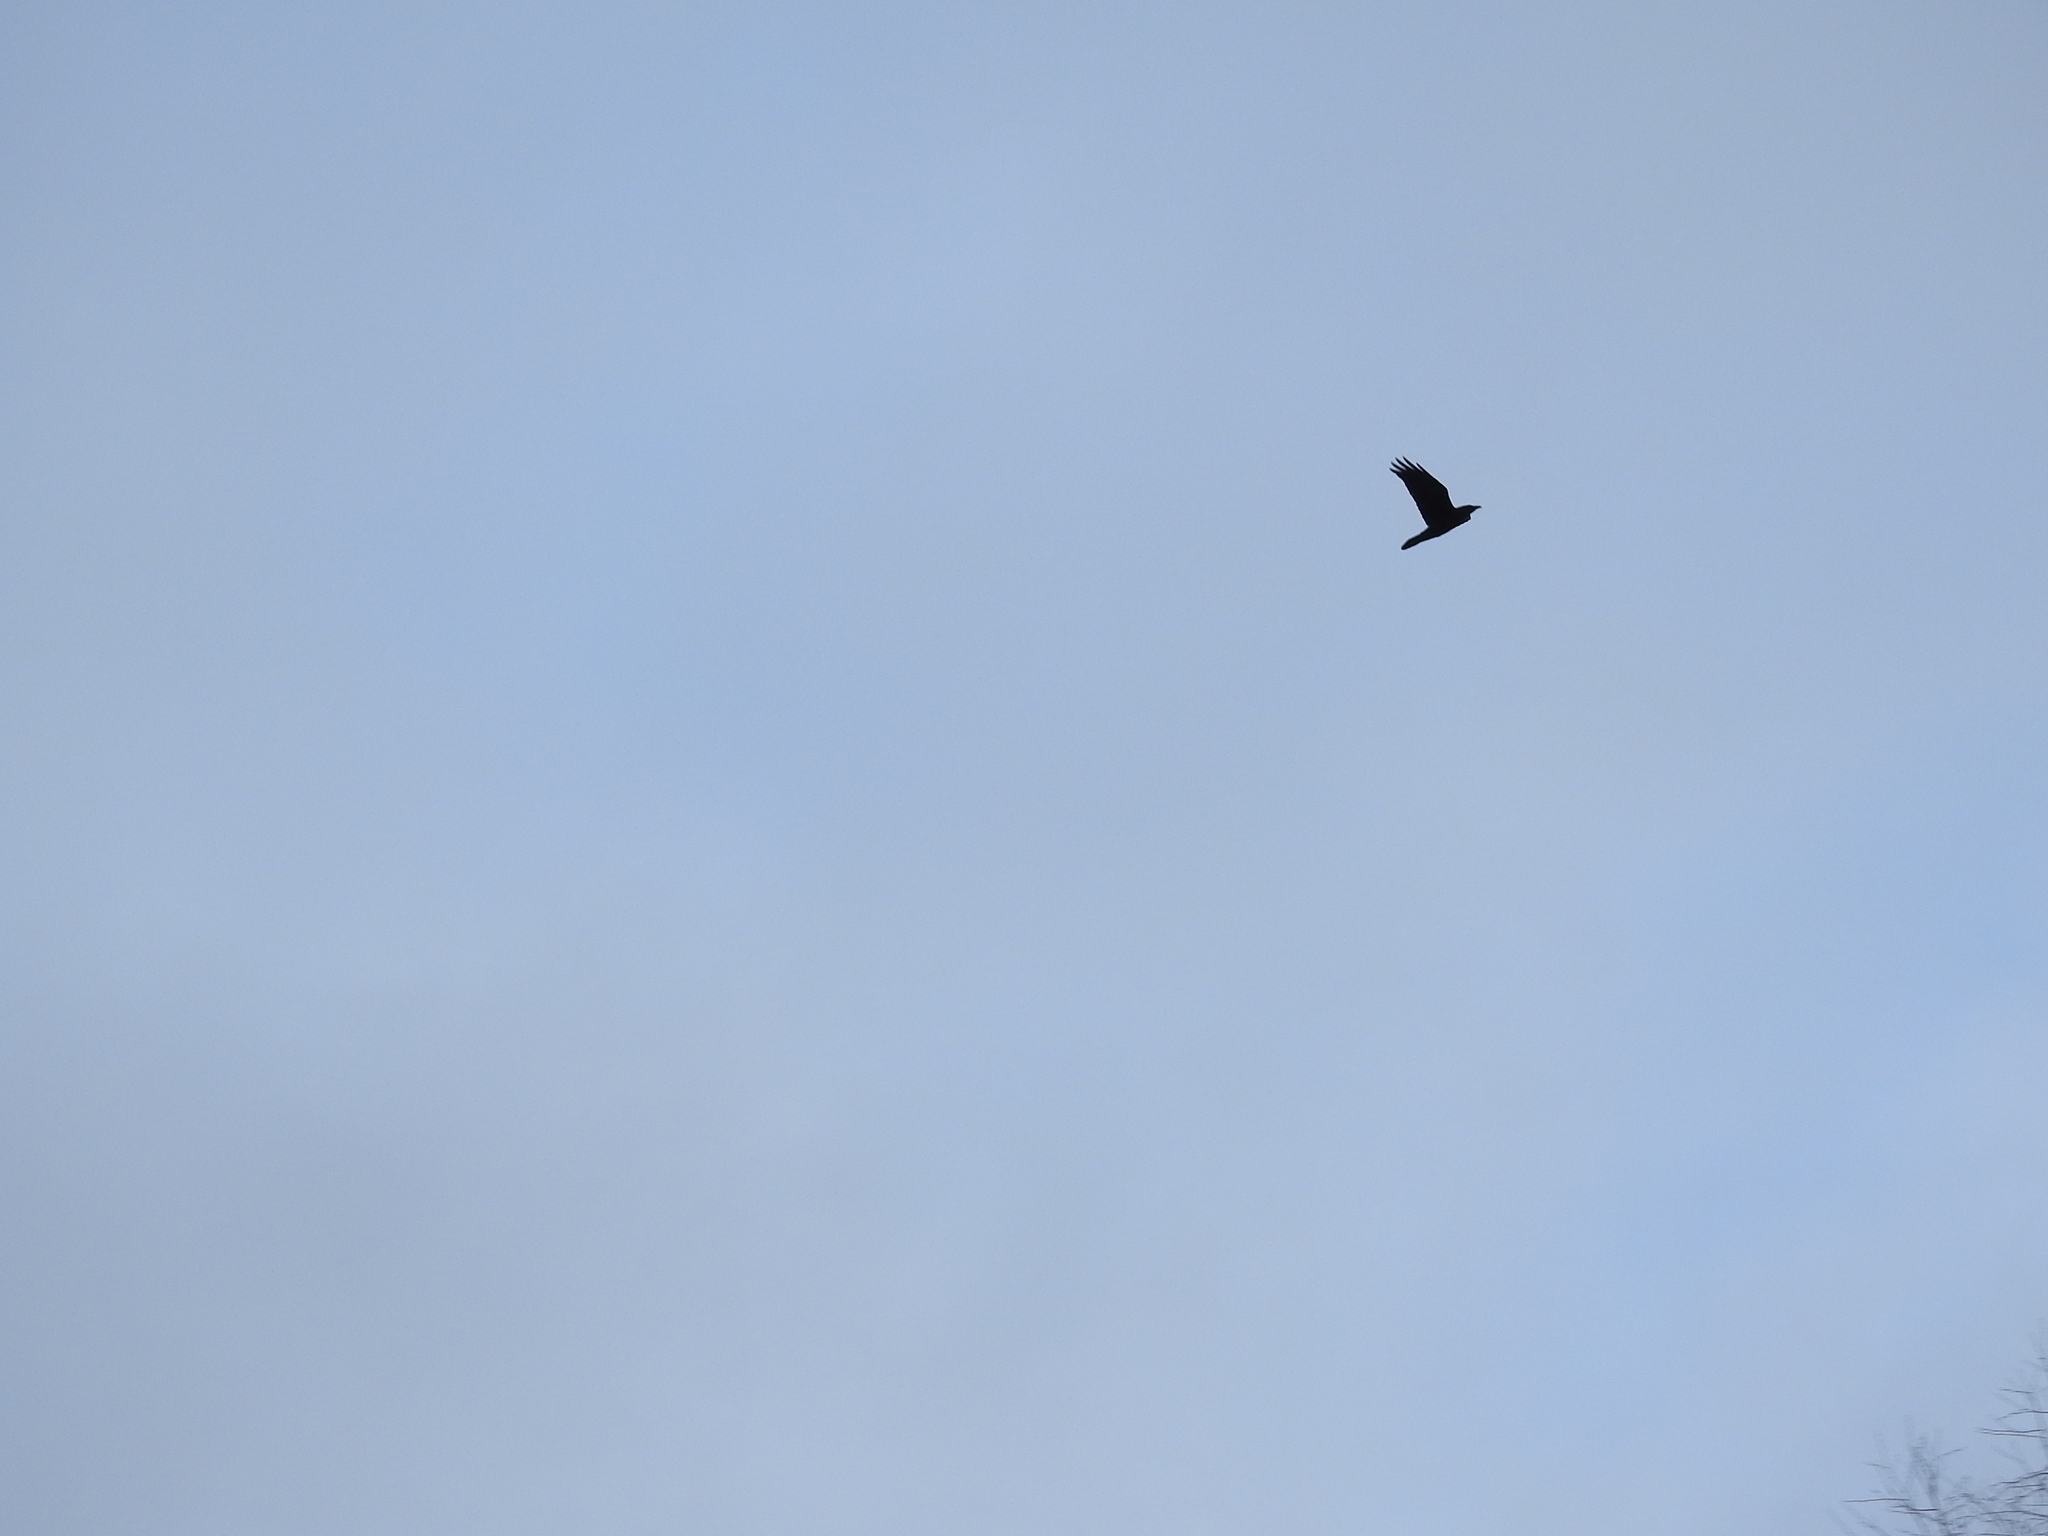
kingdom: Animalia
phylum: Chordata
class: Aves
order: Passeriformes
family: Corvidae
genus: Corvus
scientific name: Corvus corax
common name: Common raven
